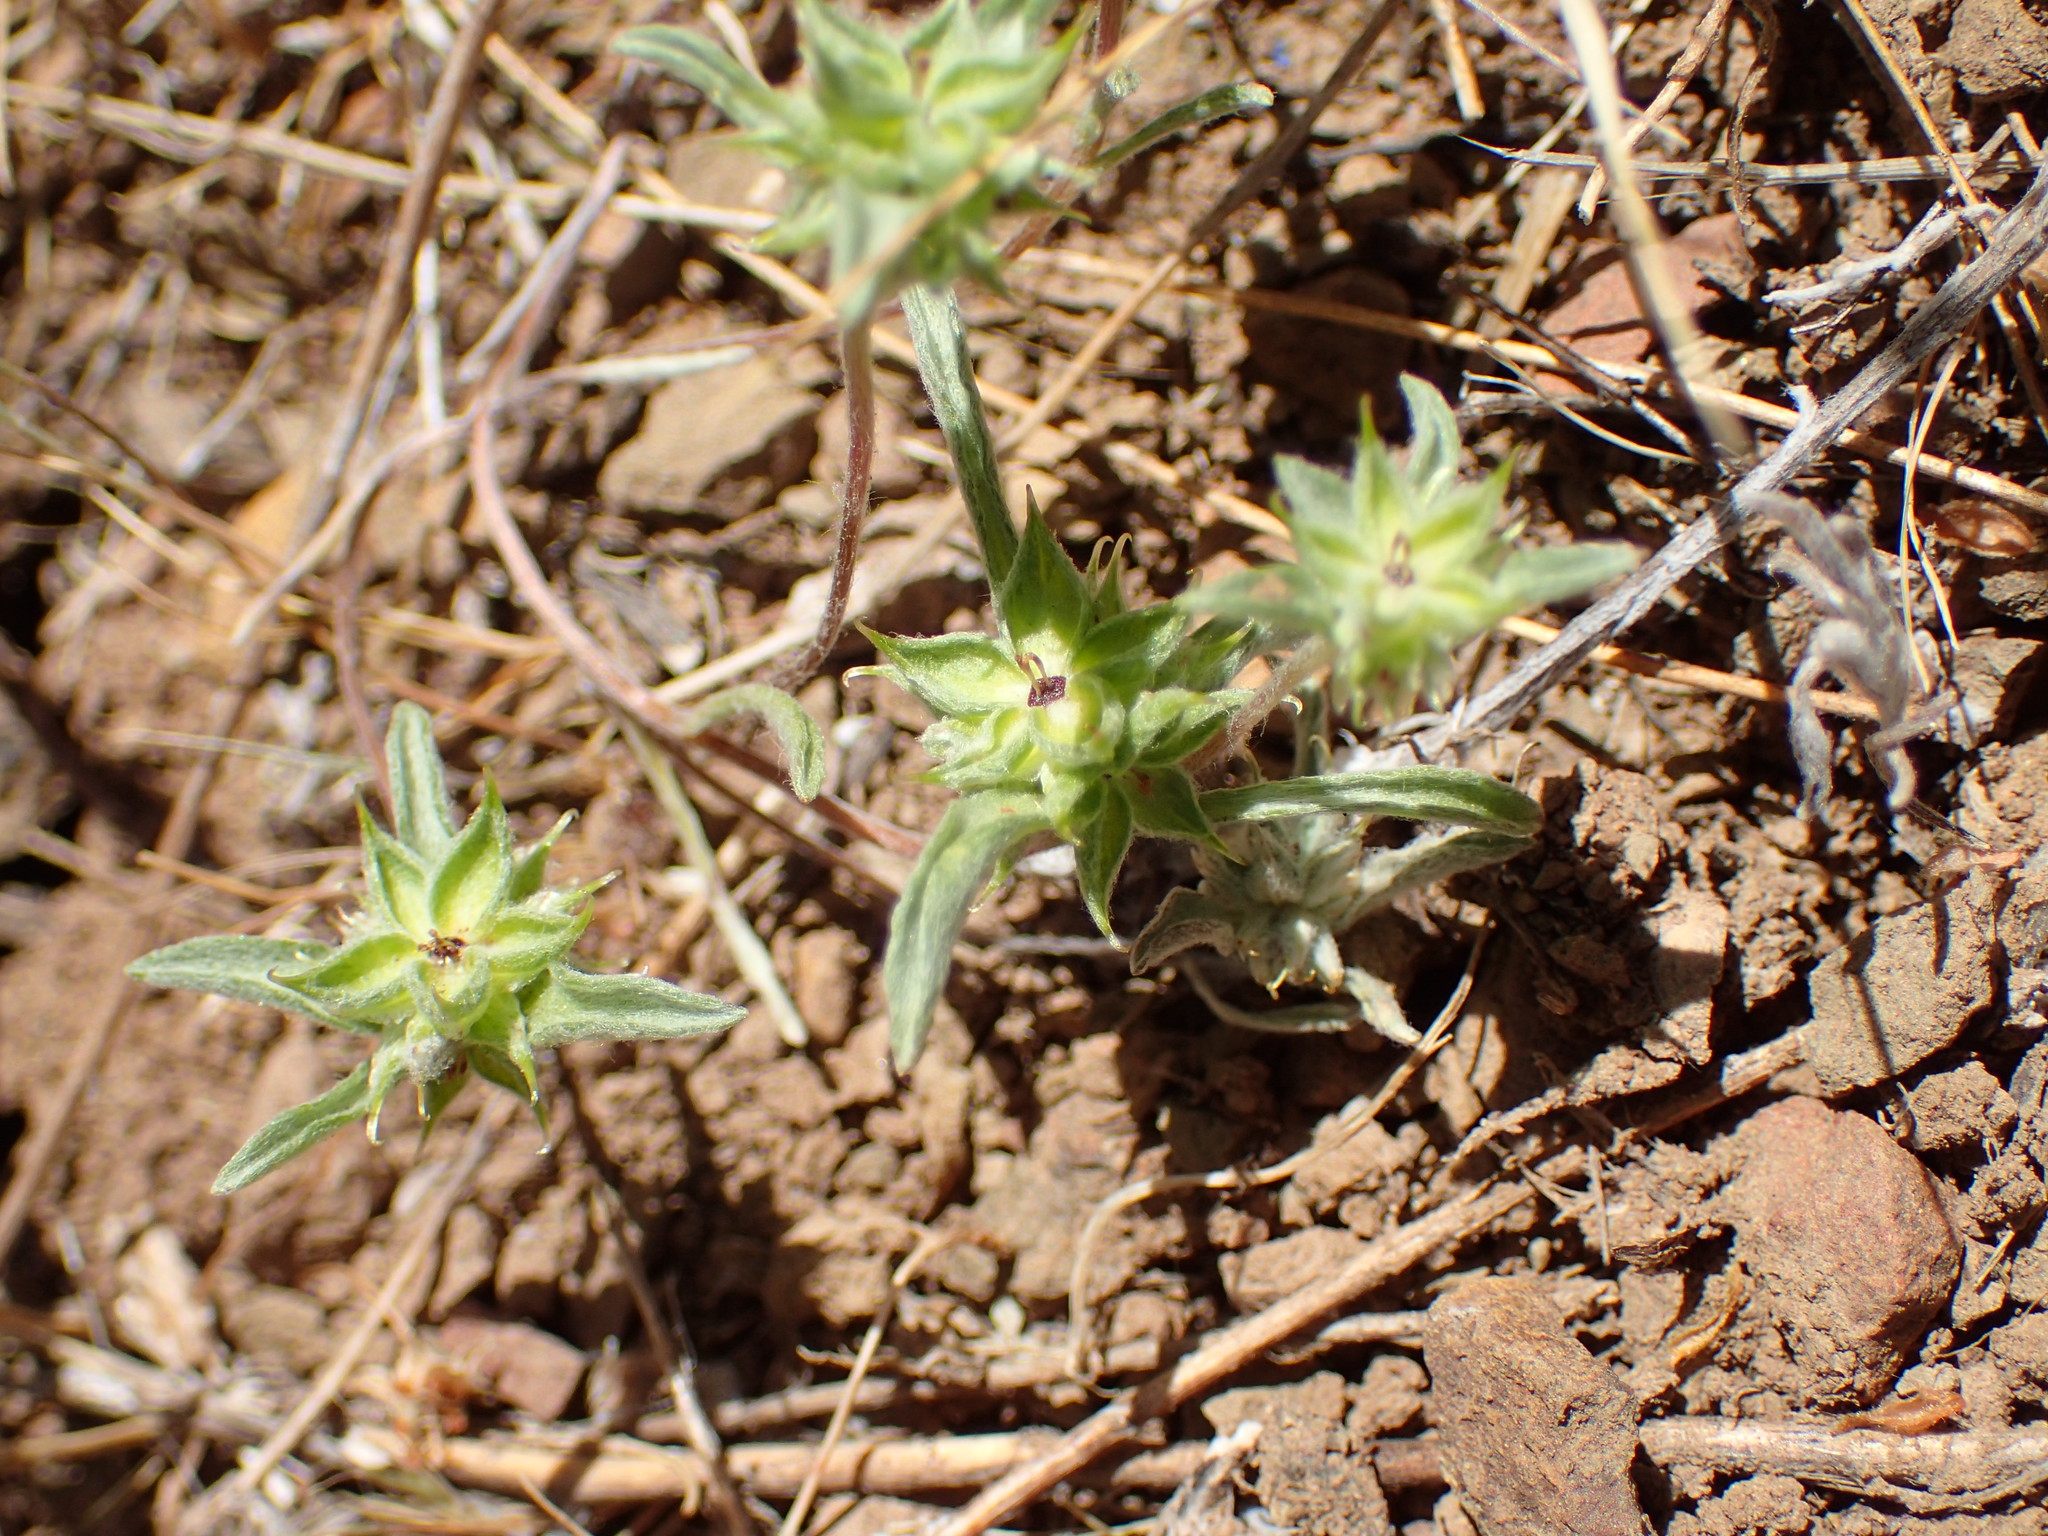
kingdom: Plantae
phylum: Tracheophyta
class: Magnoliopsida
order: Asterales
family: Asteraceae
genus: Ancistrocarphus
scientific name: Ancistrocarphus filagineus
